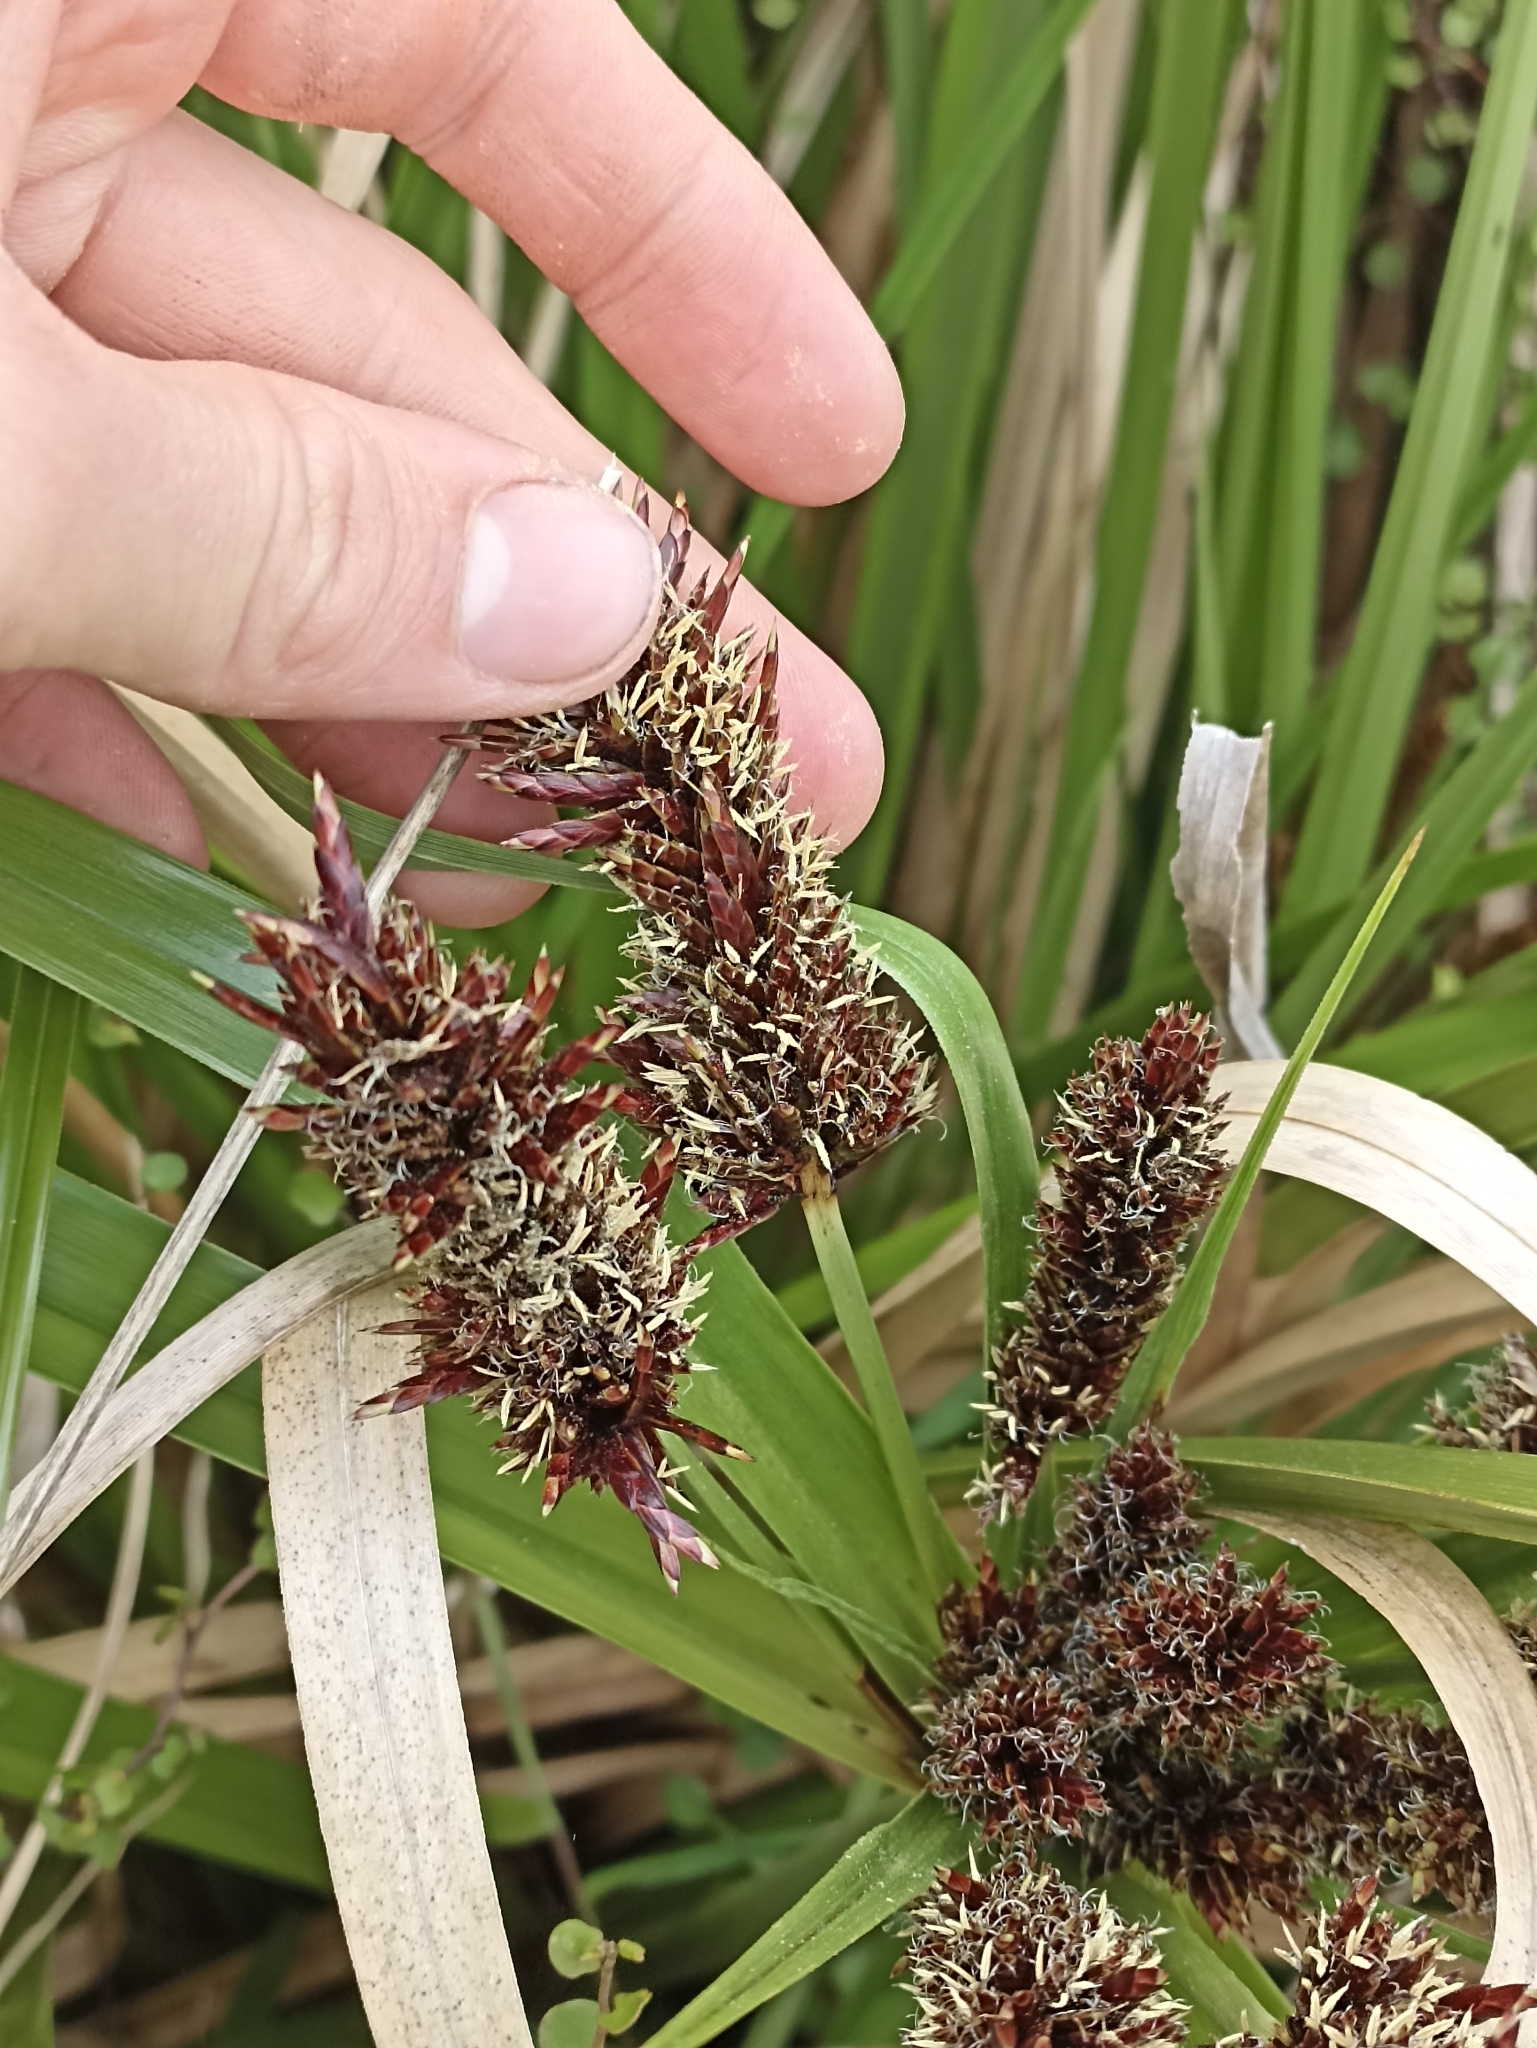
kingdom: Plantae
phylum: Tracheophyta
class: Liliopsida
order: Poales
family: Cyperaceae
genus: Cyperus
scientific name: Cyperus ustulatus
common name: Giant umbrella-sedge
